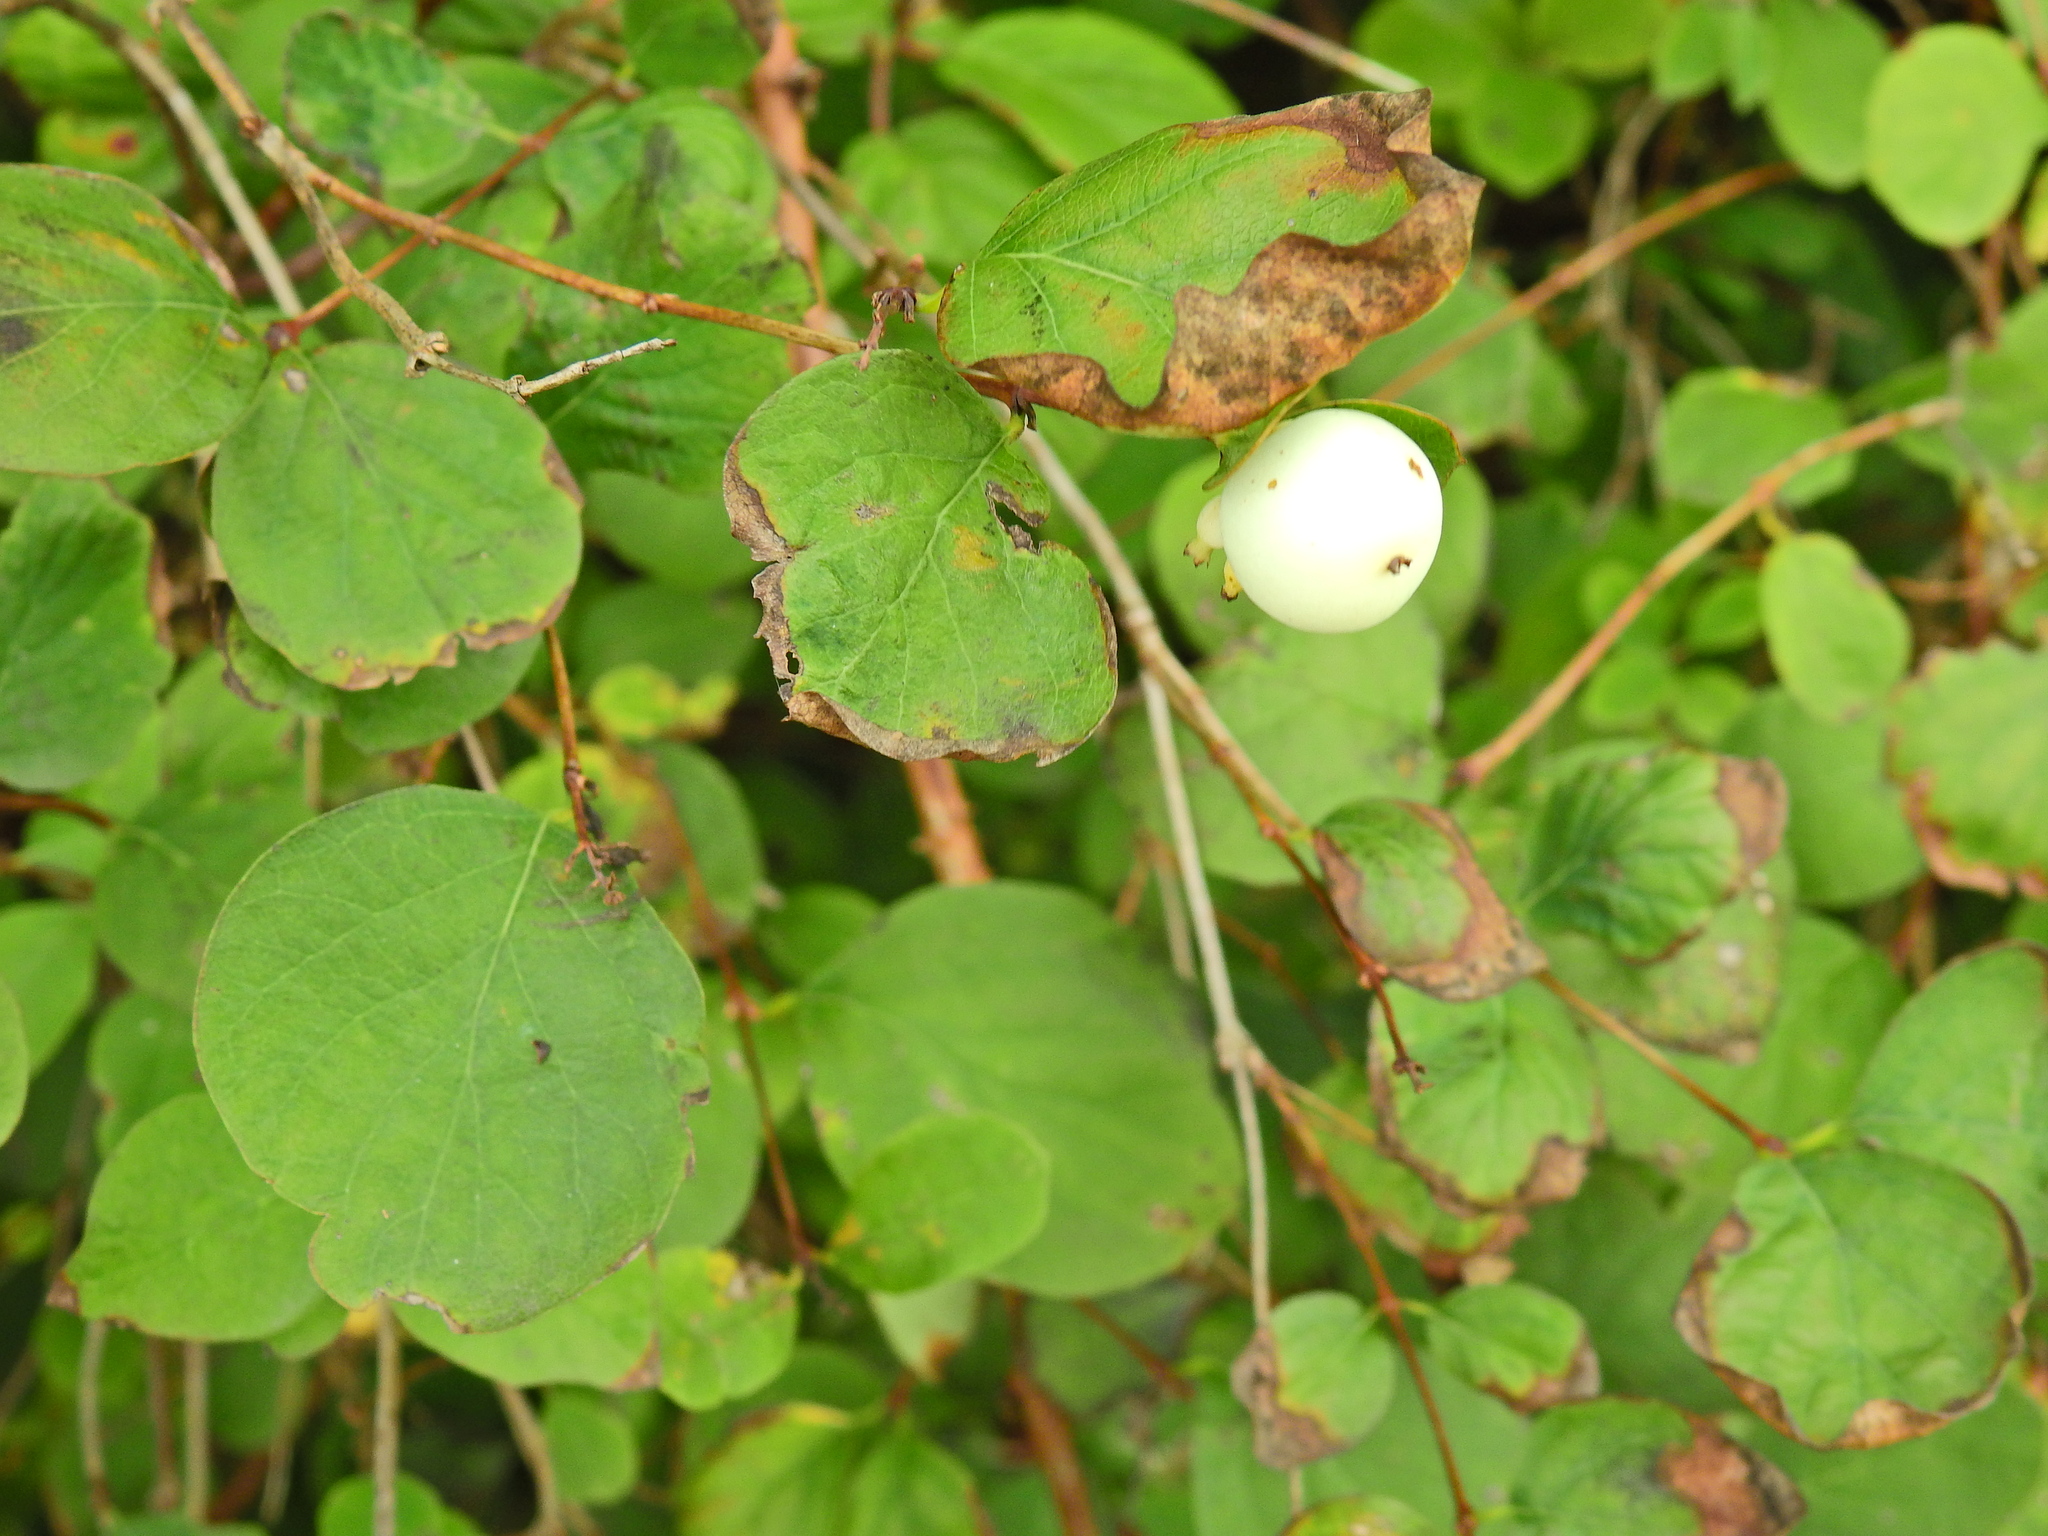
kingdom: Plantae
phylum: Tracheophyta
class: Magnoliopsida
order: Dipsacales
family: Caprifoliaceae
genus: Symphoricarpos
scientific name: Symphoricarpos albus
